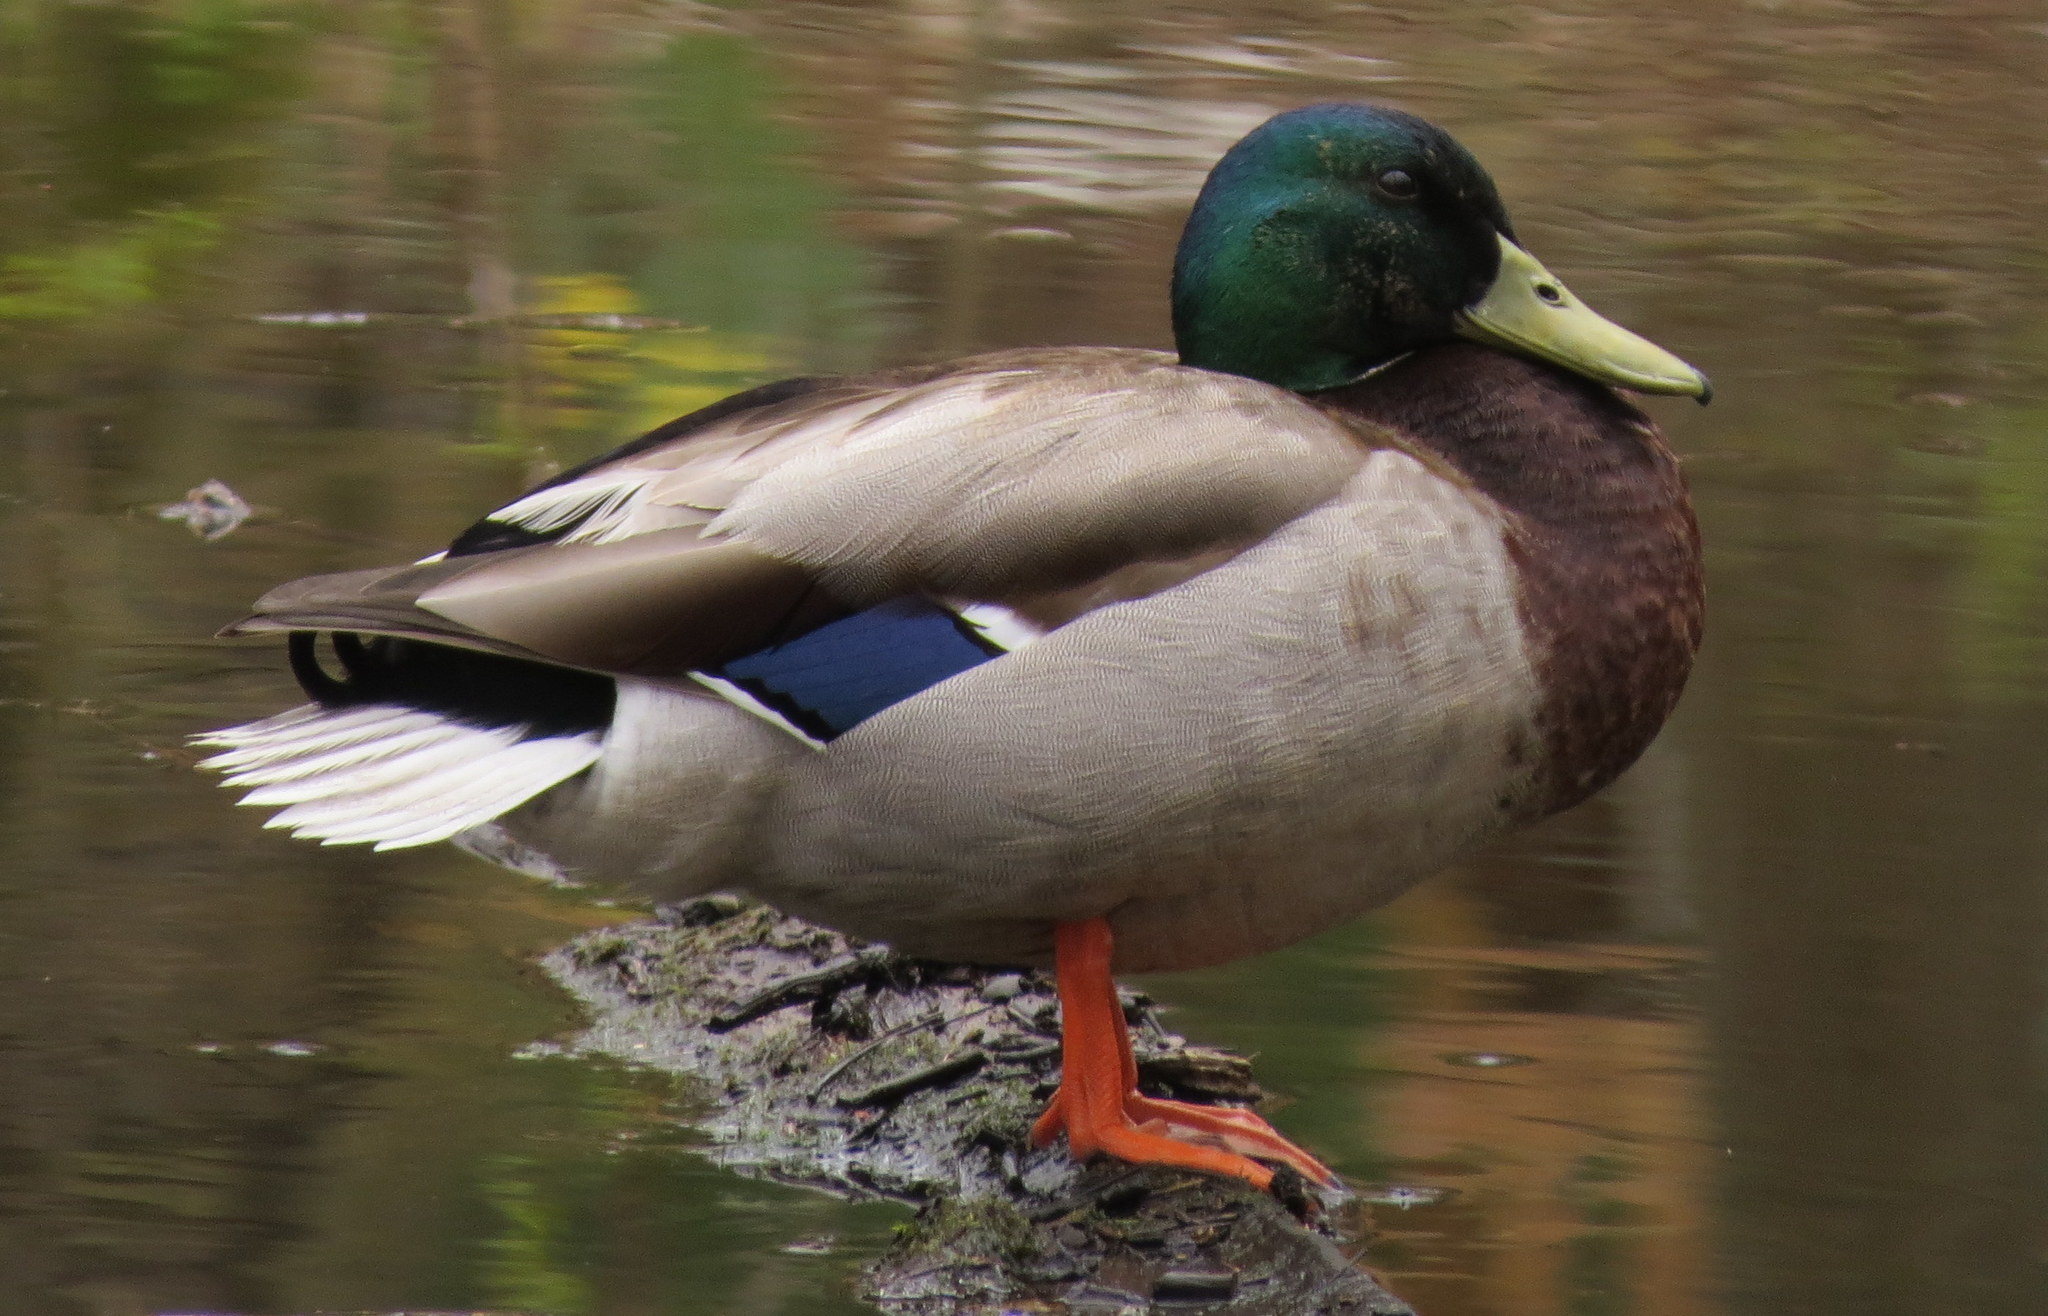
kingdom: Animalia
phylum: Chordata
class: Aves
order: Anseriformes
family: Anatidae
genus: Anas
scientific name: Anas platyrhynchos
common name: Mallard
